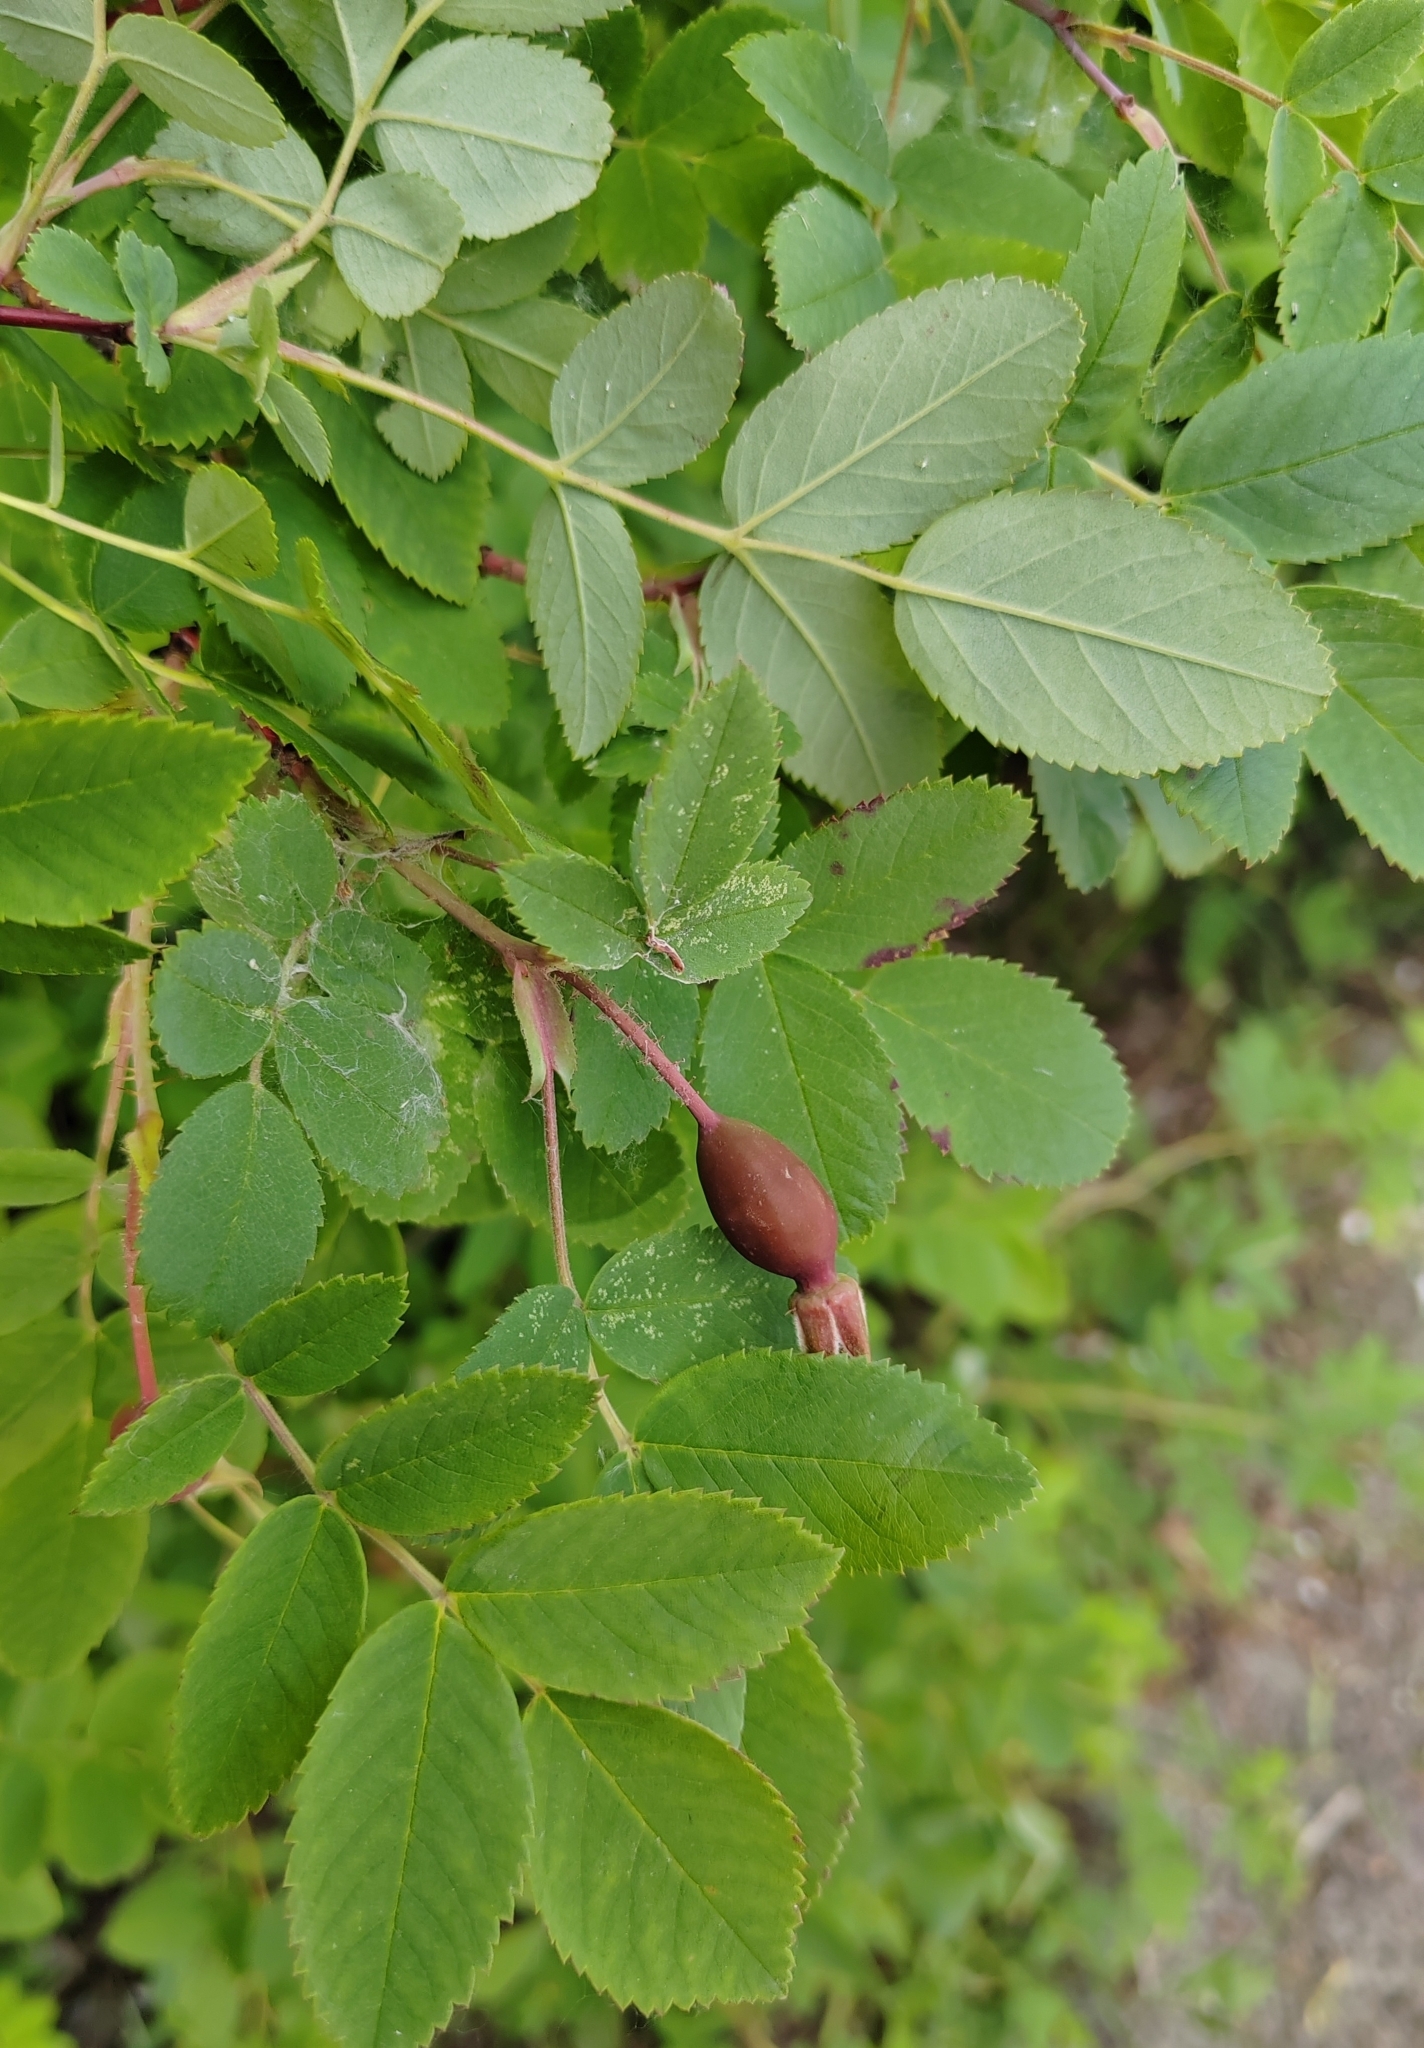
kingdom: Plantae
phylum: Tracheophyta
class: Magnoliopsida
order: Rosales
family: Rosaceae
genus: Rosa
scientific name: Rosa acicularis
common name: Prickly rose
